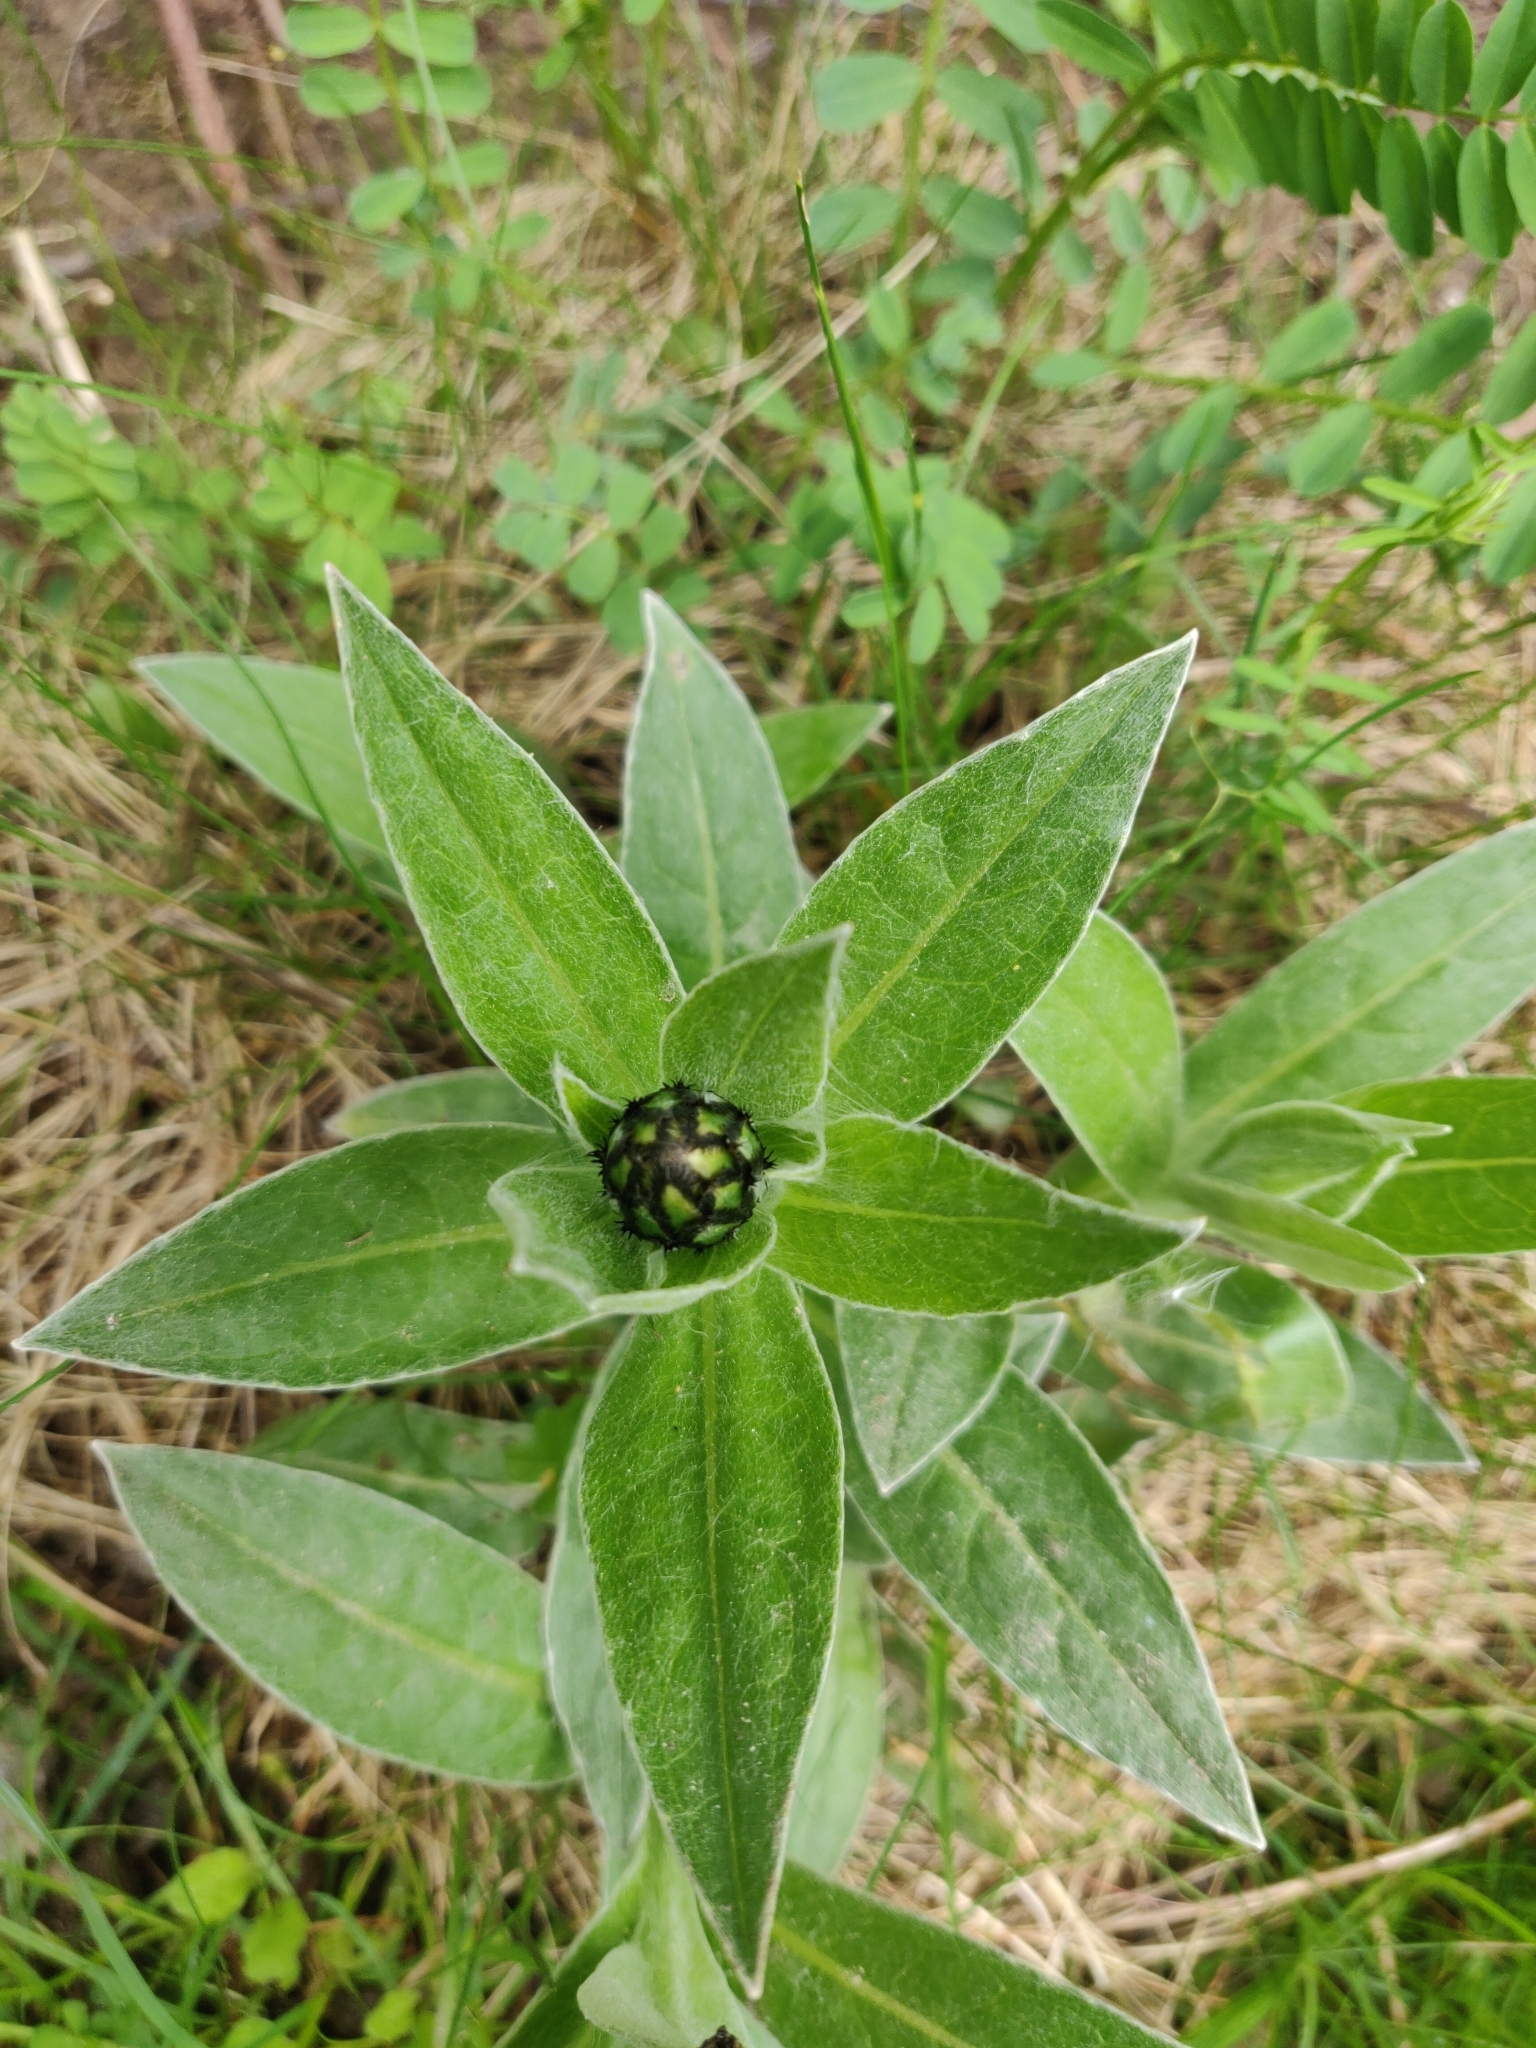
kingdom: Plantae
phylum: Tracheophyta
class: Magnoliopsida
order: Asterales
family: Asteraceae
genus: Centaurea
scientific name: Centaurea montana
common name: Perennial cornflower
